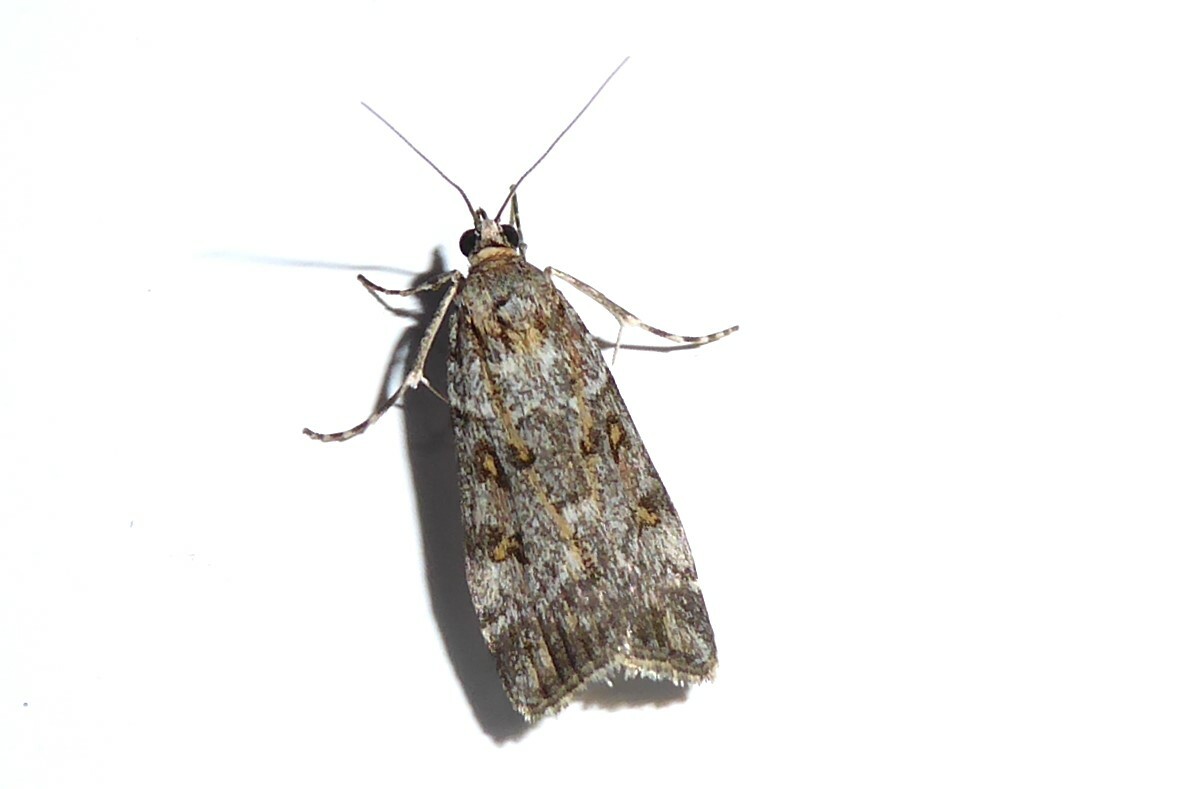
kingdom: Animalia
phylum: Arthropoda
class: Insecta
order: Lepidoptera
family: Crambidae
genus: Scoparia
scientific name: Scoparia tetracycla
